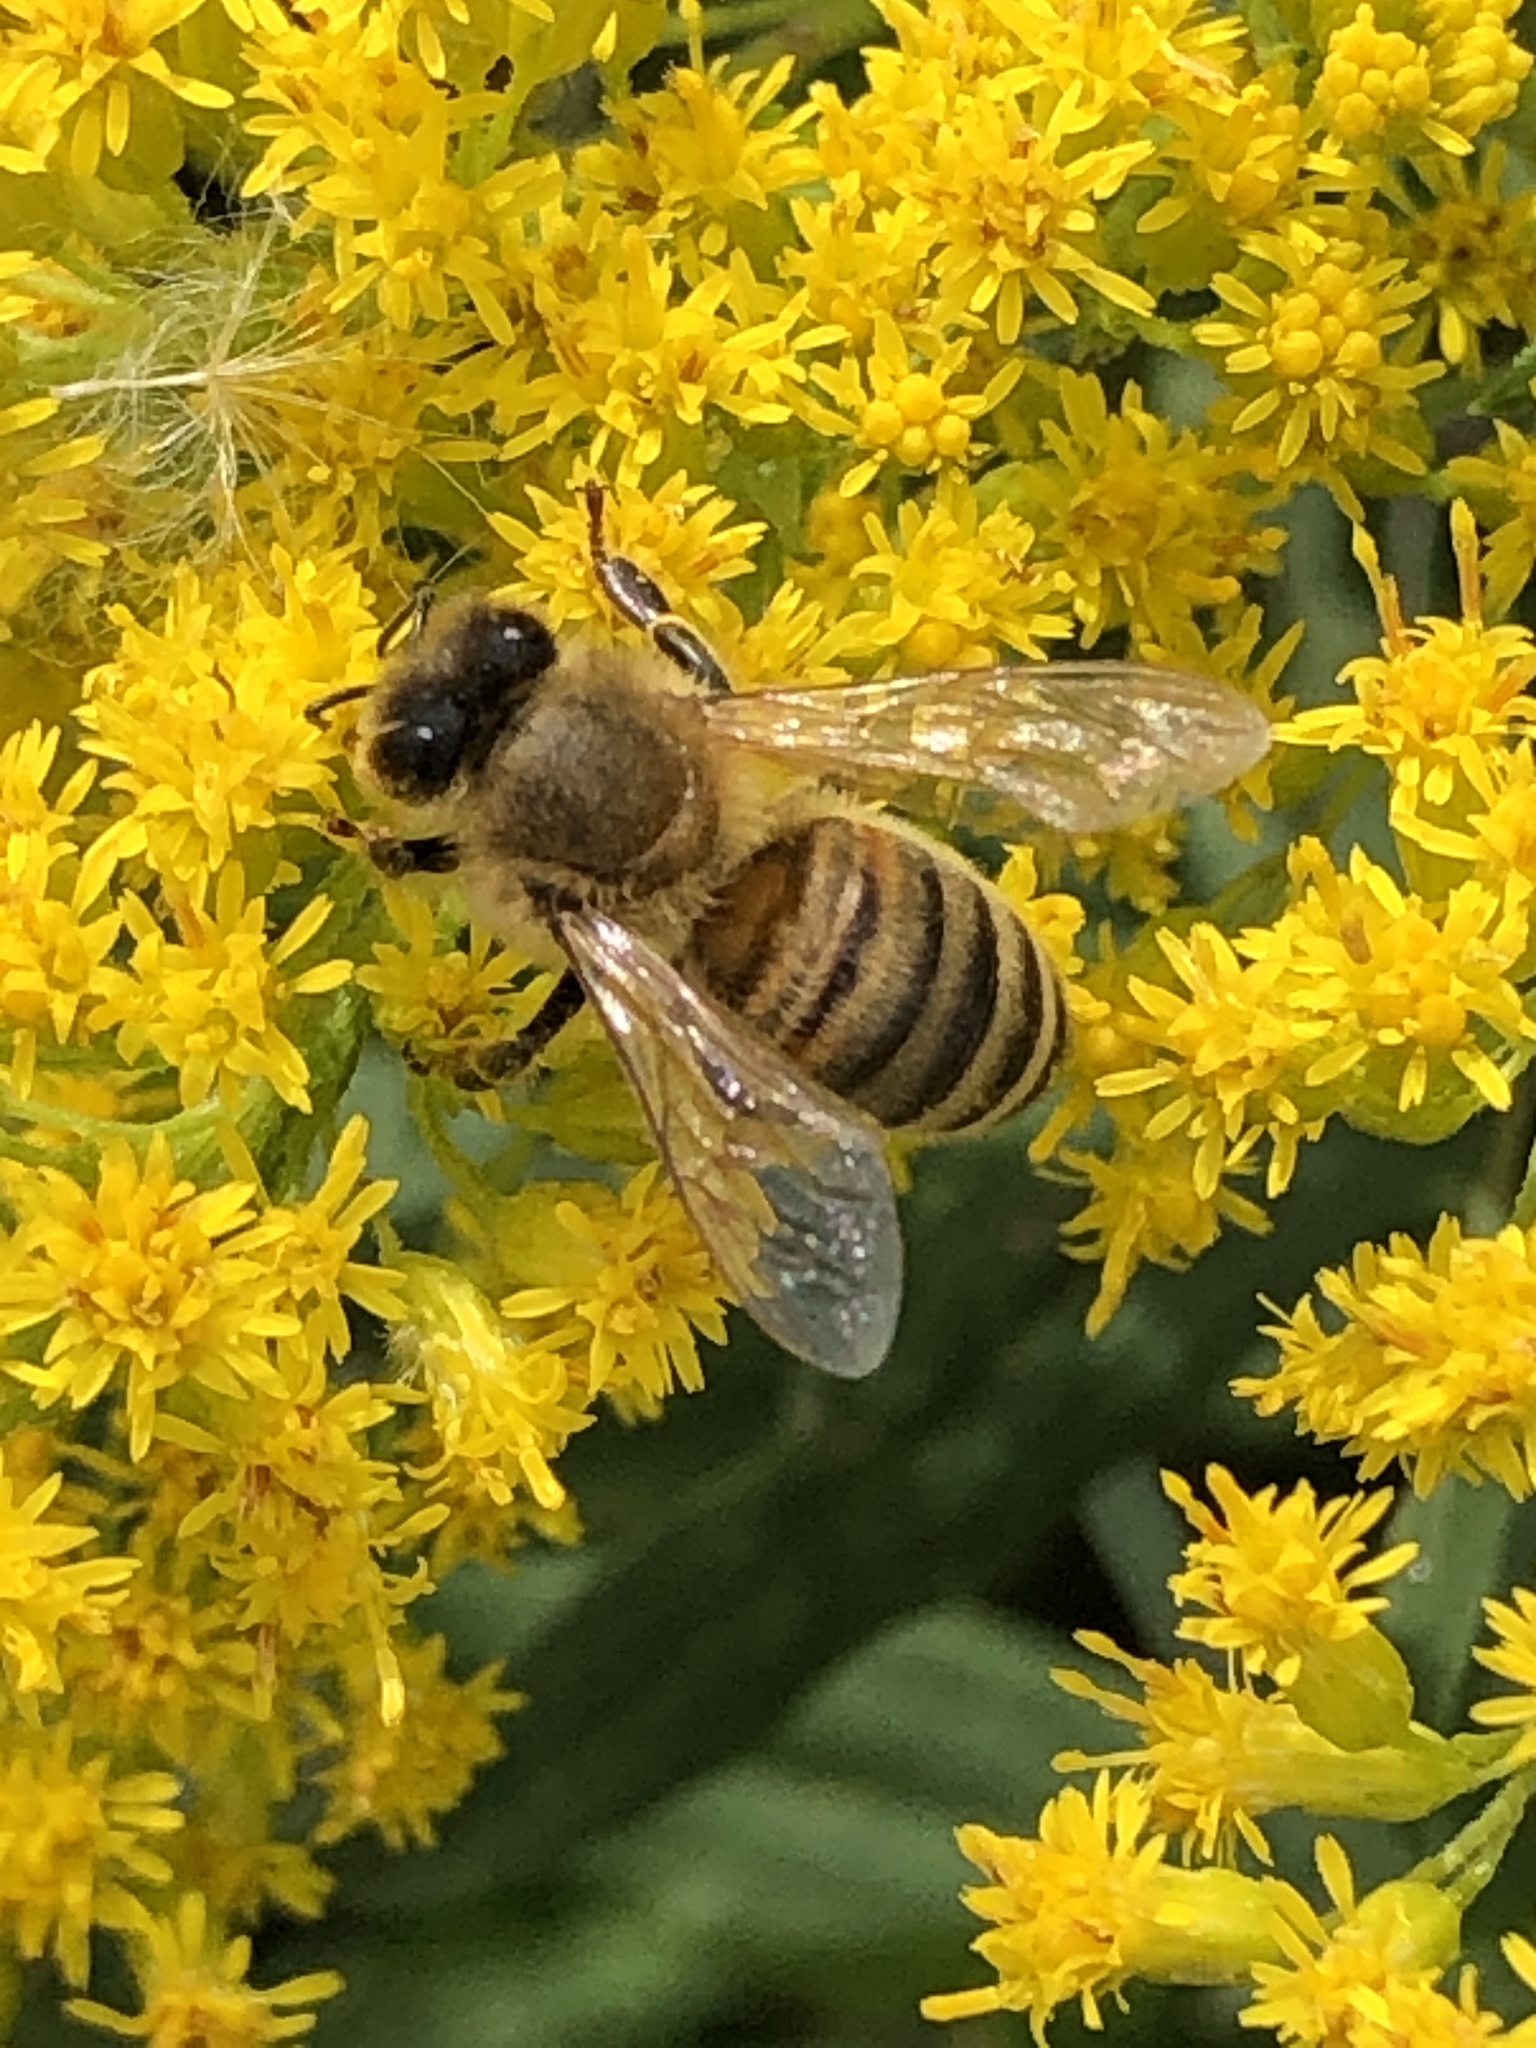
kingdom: Animalia
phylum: Arthropoda
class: Insecta
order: Hymenoptera
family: Apidae
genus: Apis
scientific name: Apis mellifera
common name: Honey bee
